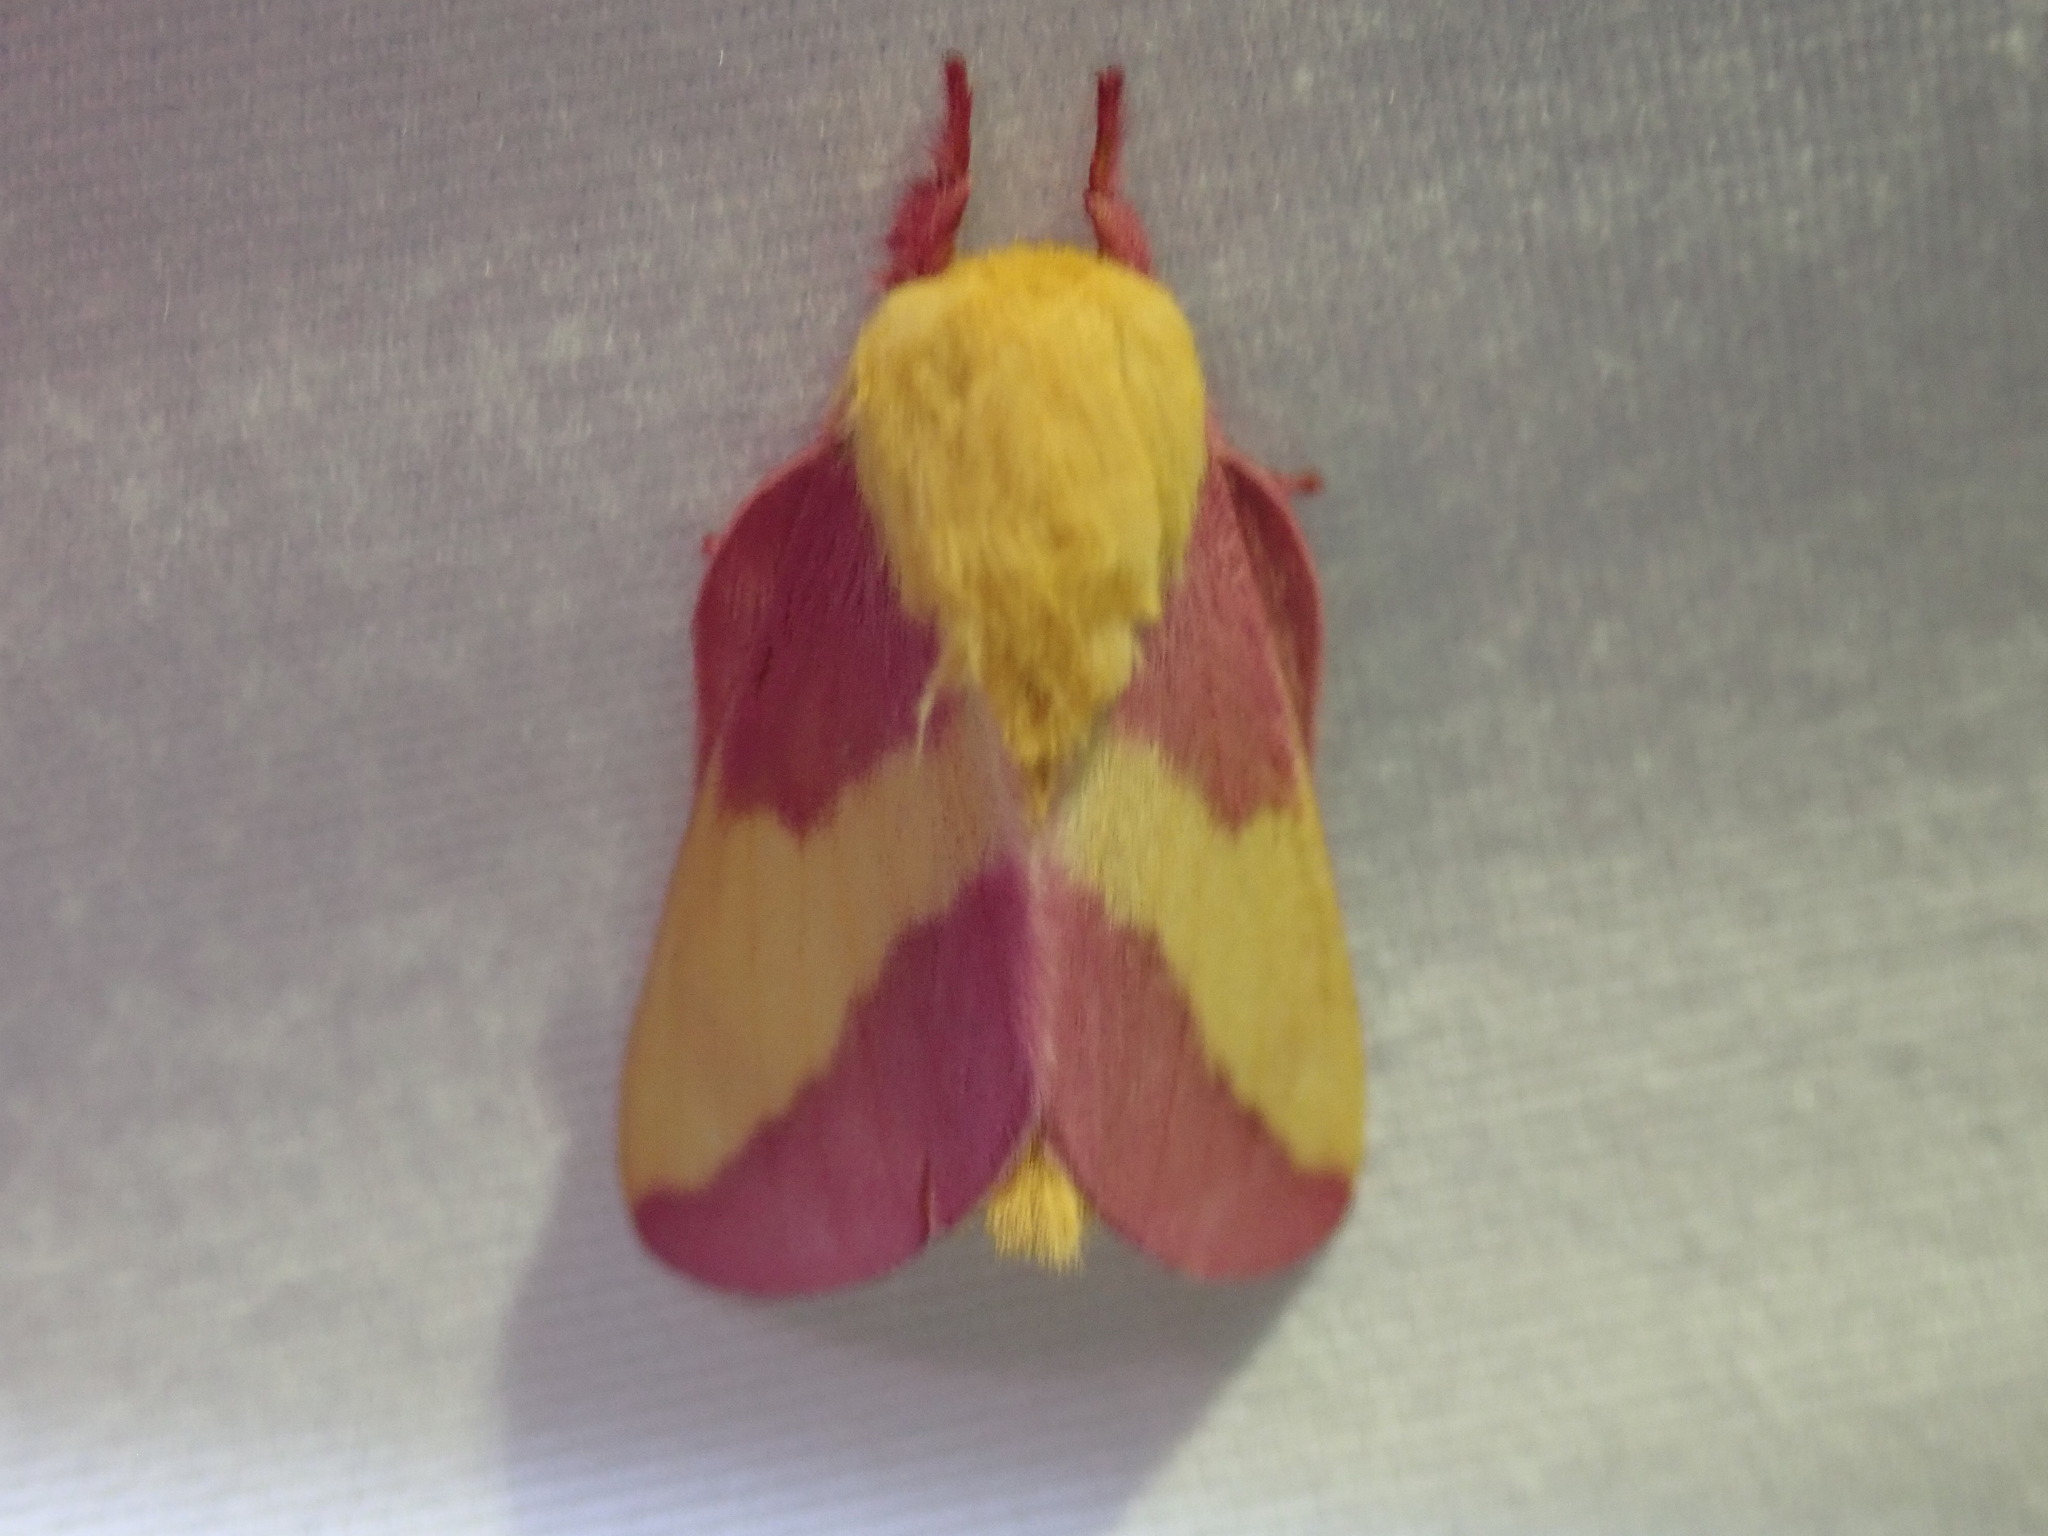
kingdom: Animalia
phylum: Arthropoda
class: Insecta
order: Lepidoptera
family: Saturniidae
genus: Dryocampa
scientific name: Dryocampa rubicunda
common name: Rosy maple moth
